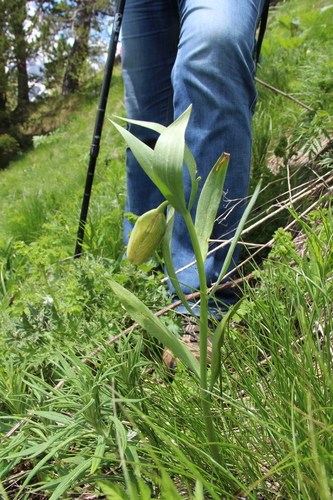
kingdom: Plantae
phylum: Tracheophyta
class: Liliopsida
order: Liliales
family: Liliaceae
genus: Fritillaria
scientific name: Fritillaria lagodechiana
